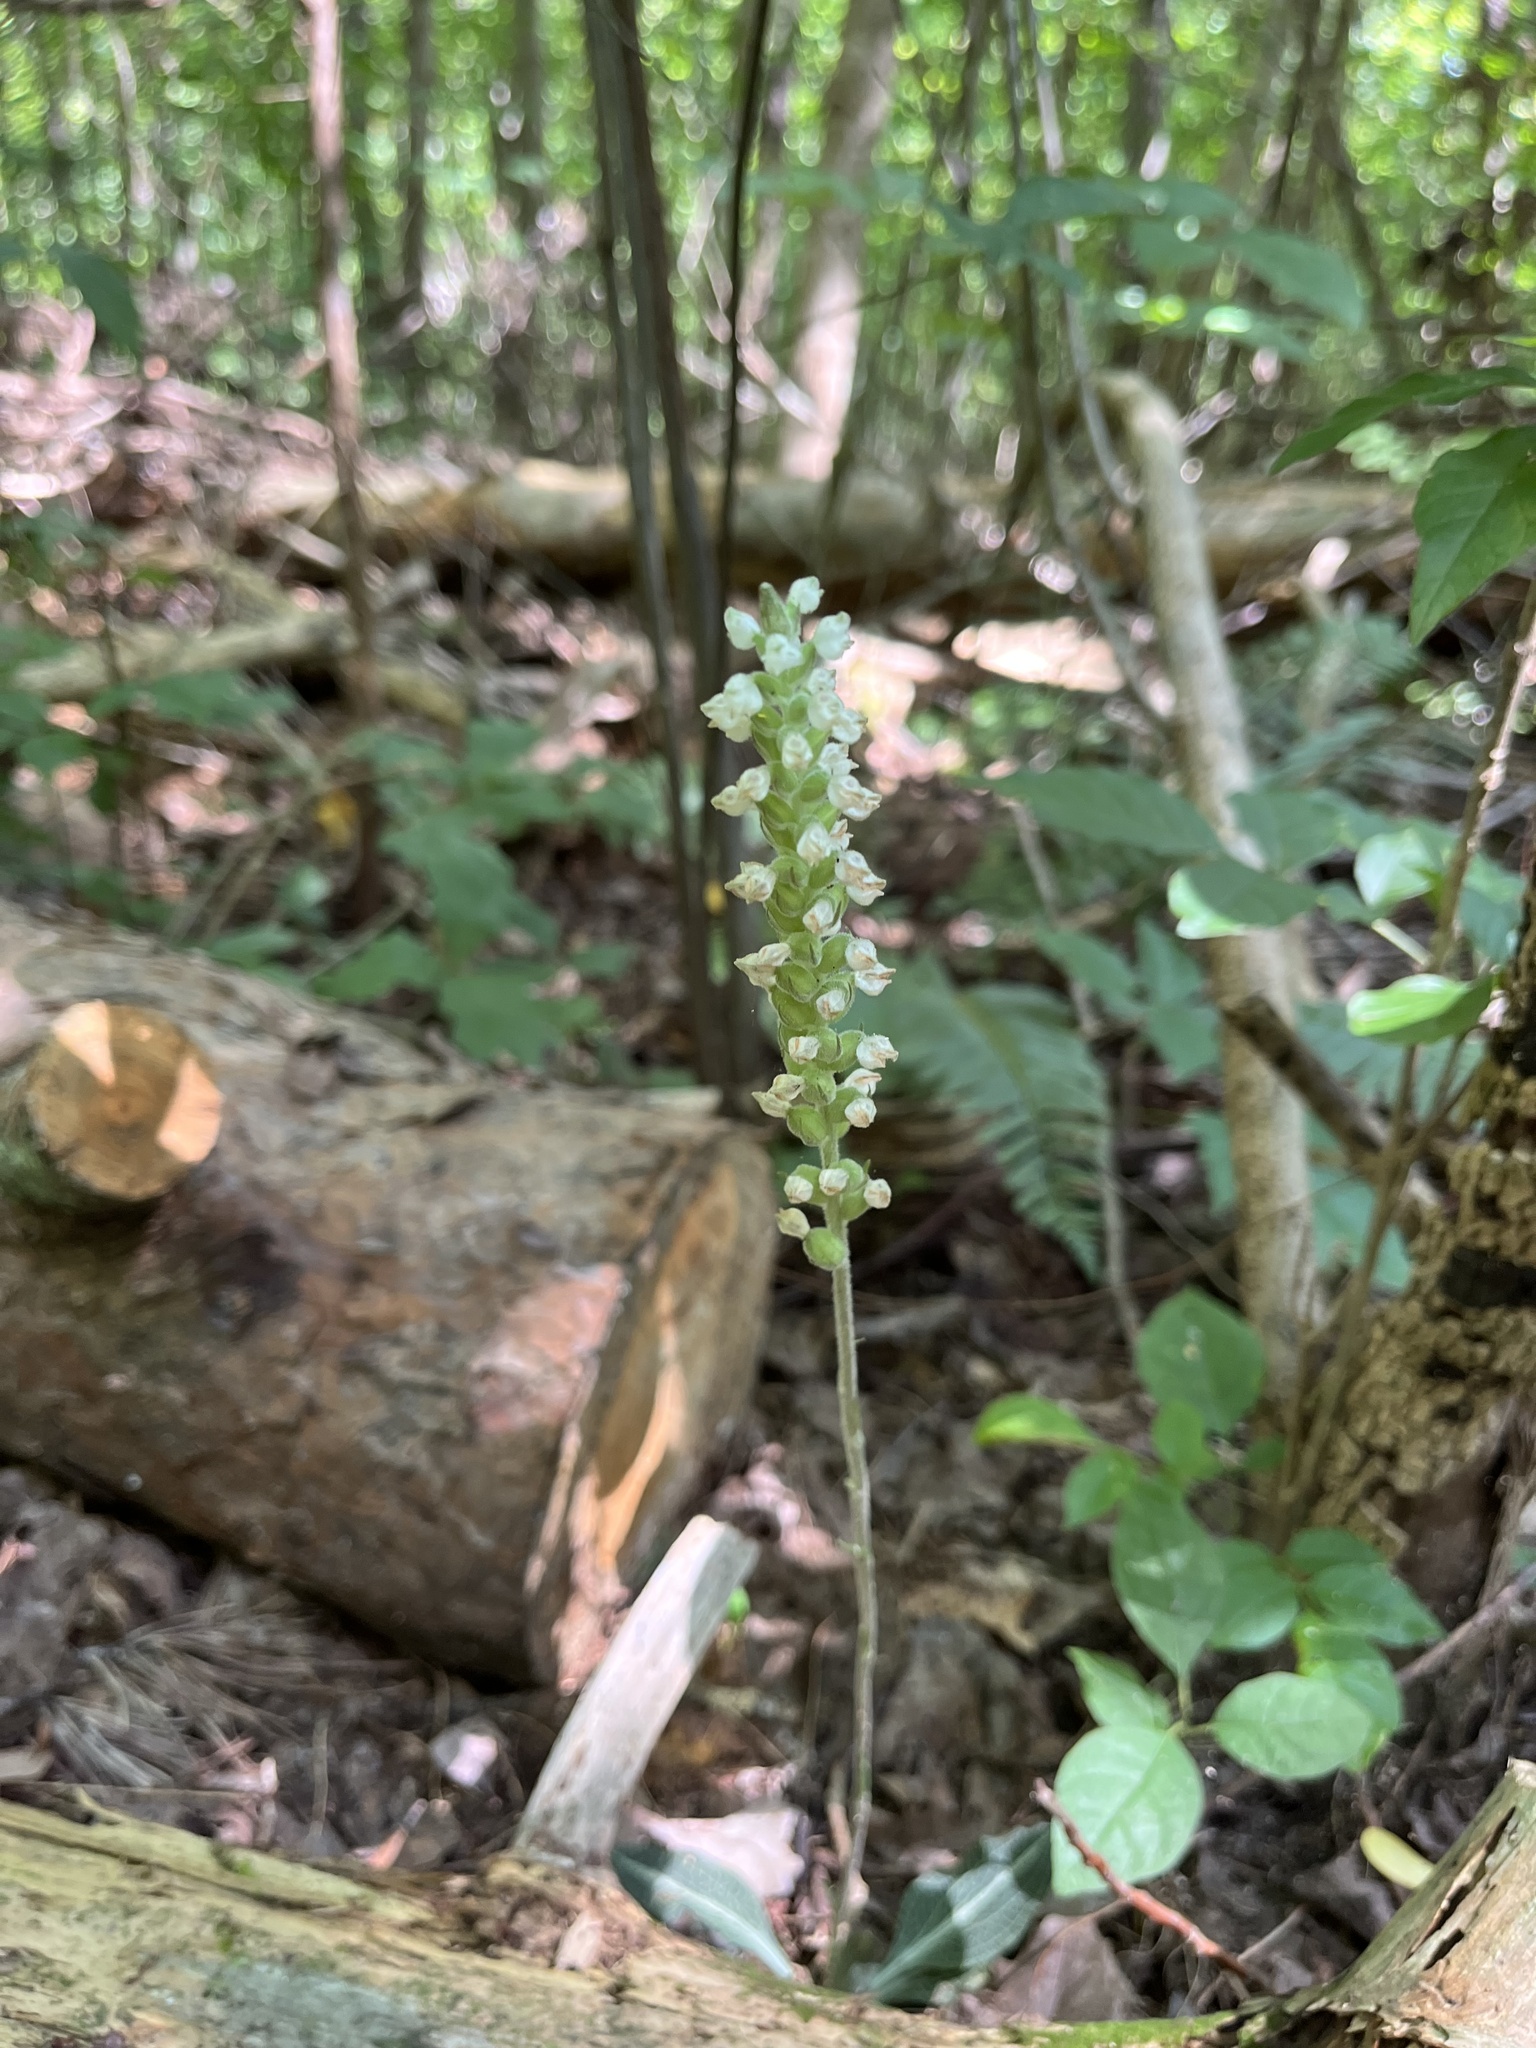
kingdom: Plantae
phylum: Tracheophyta
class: Liliopsida
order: Asparagales
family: Orchidaceae
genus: Goodyera
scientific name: Goodyera pubescens
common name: Downy rattlesnake-plantain
